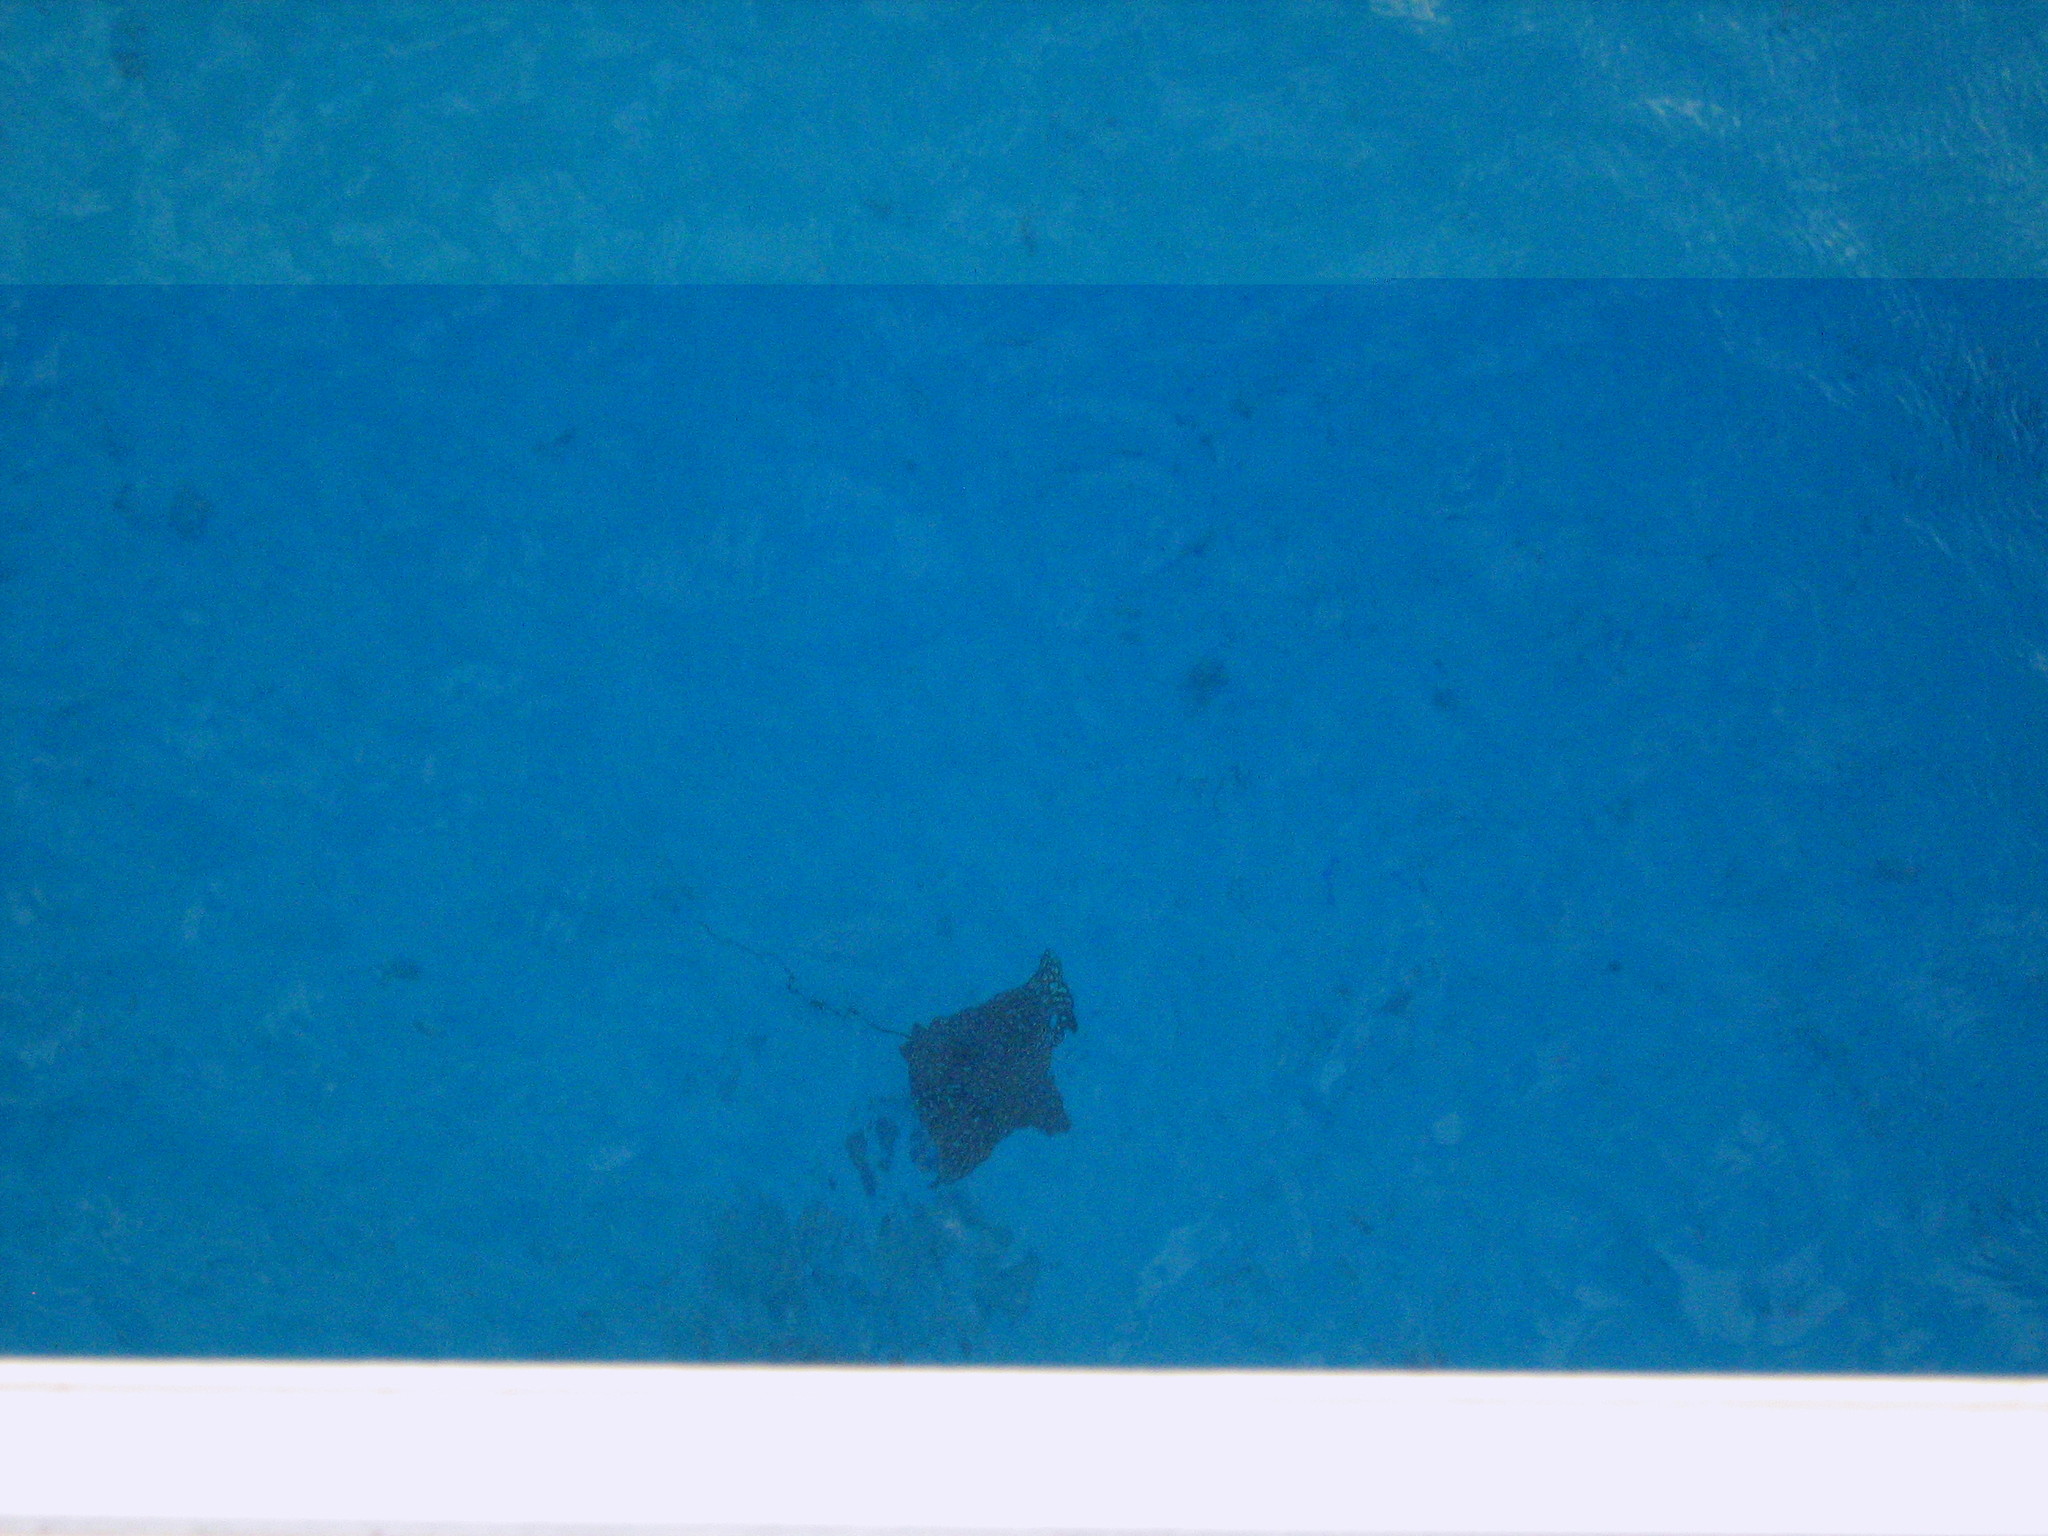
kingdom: Animalia
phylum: Chordata
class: Elasmobranchii
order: Myliobatiformes
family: Myliobatidae
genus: Aetobatus
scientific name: Aetobatus narinari
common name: Spotted eagle ray
